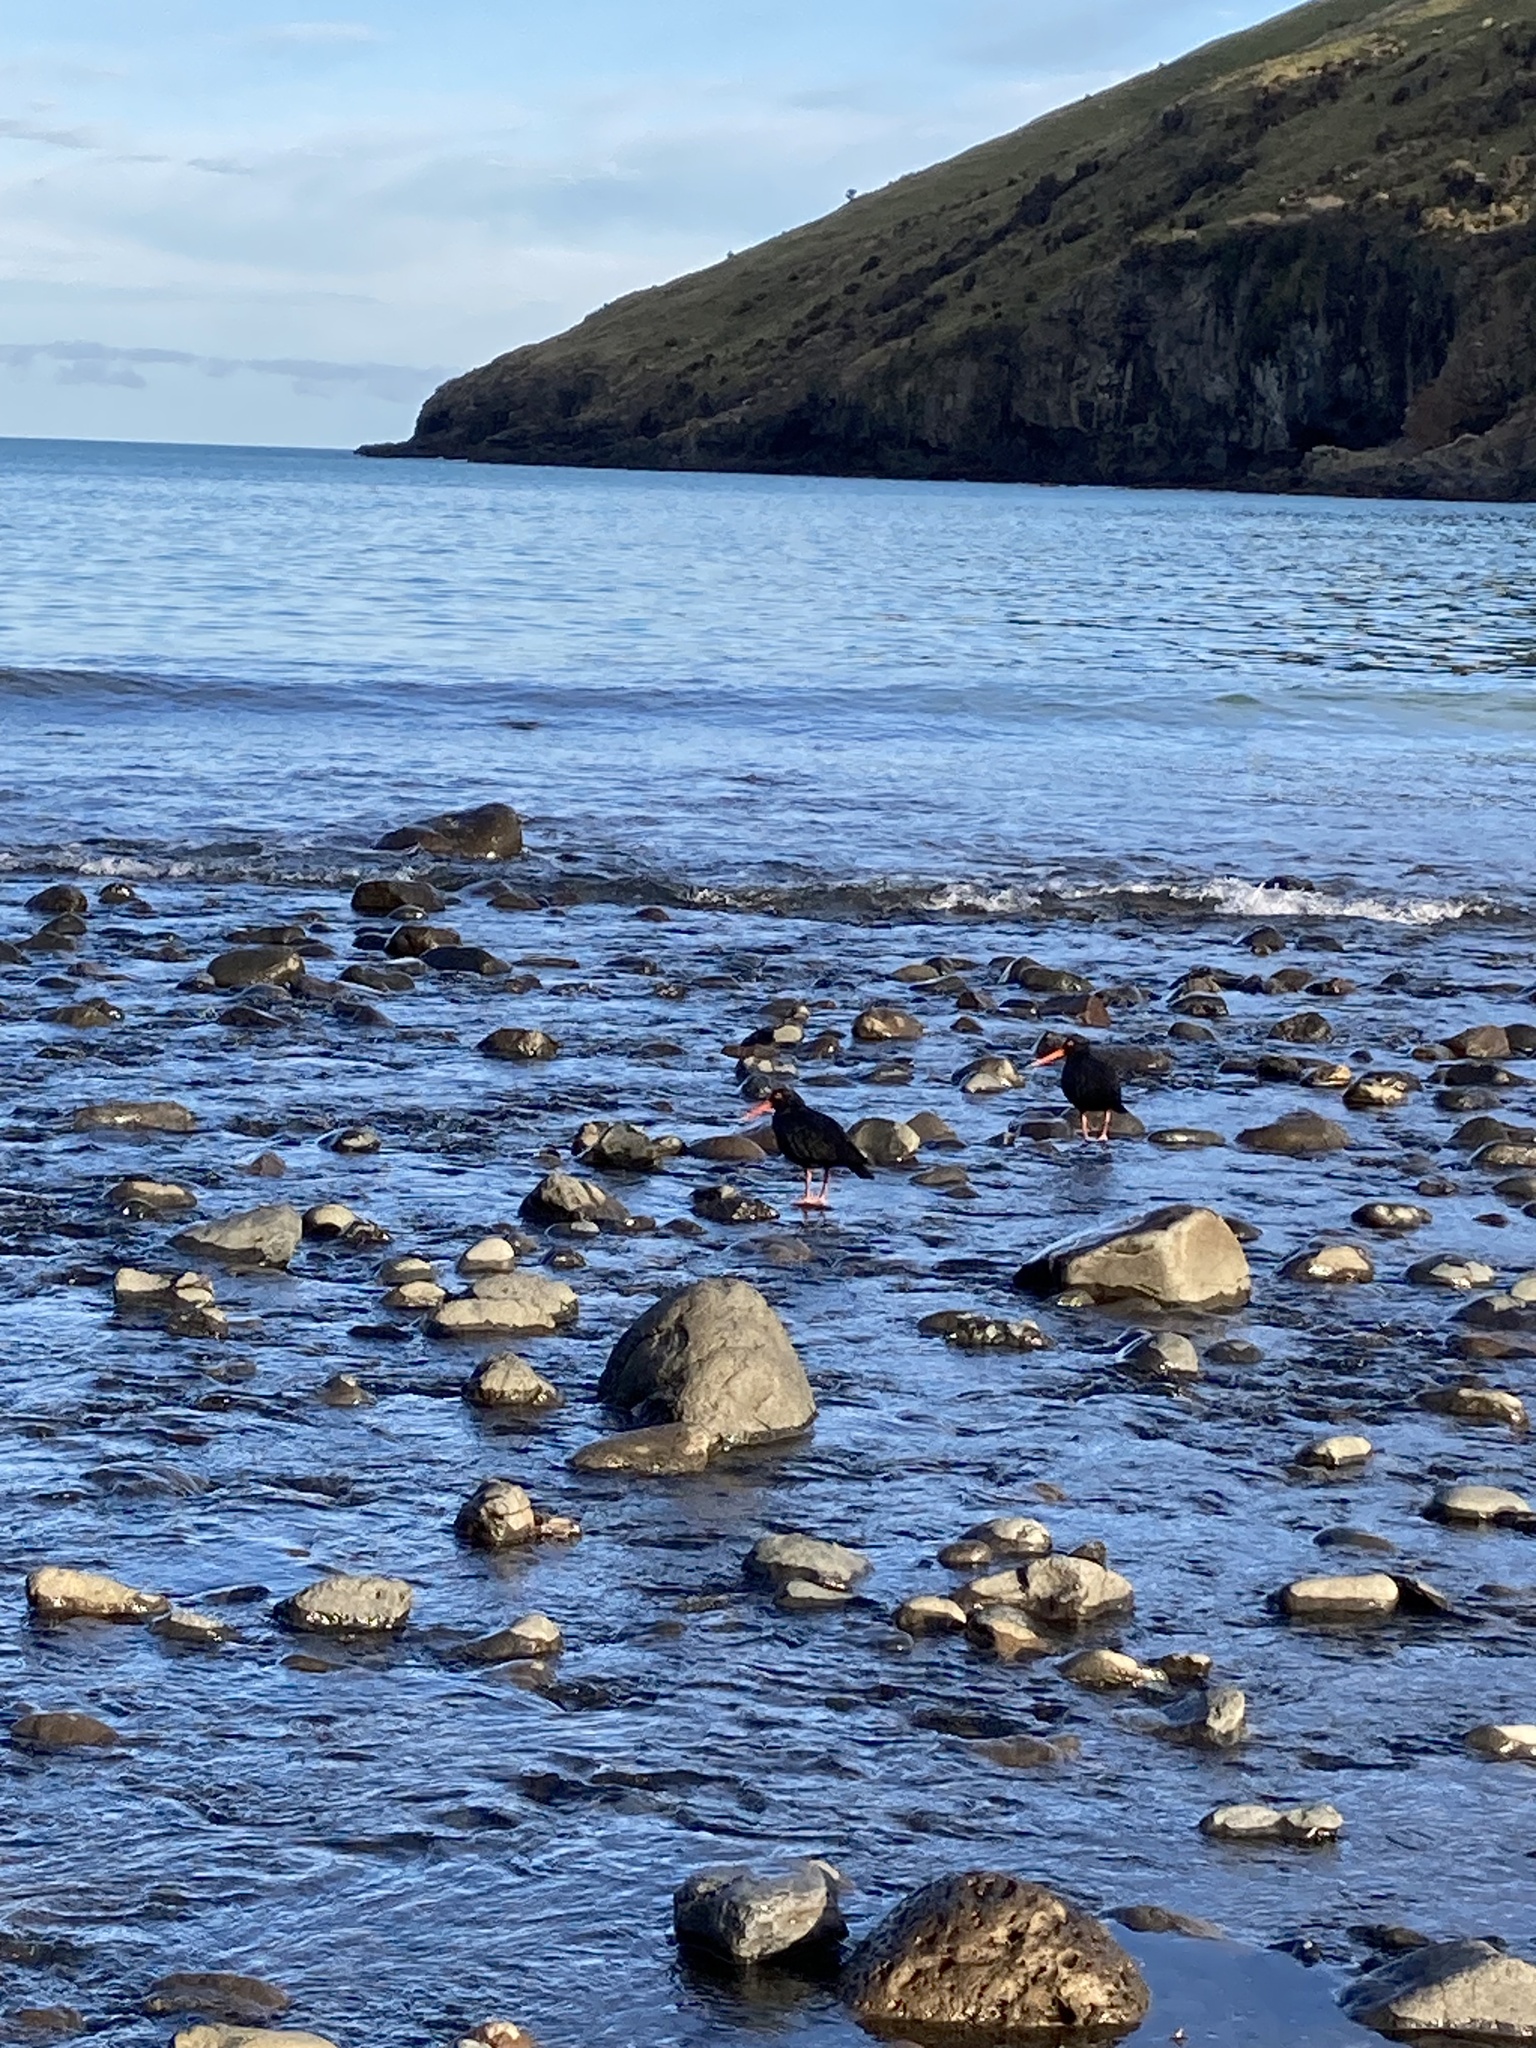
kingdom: Animalia
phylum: Chordata
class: Aves
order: Charadriiformes
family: Haematopodidae
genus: Haematopus
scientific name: Haematopus unicolor
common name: Variable oystercatcher
